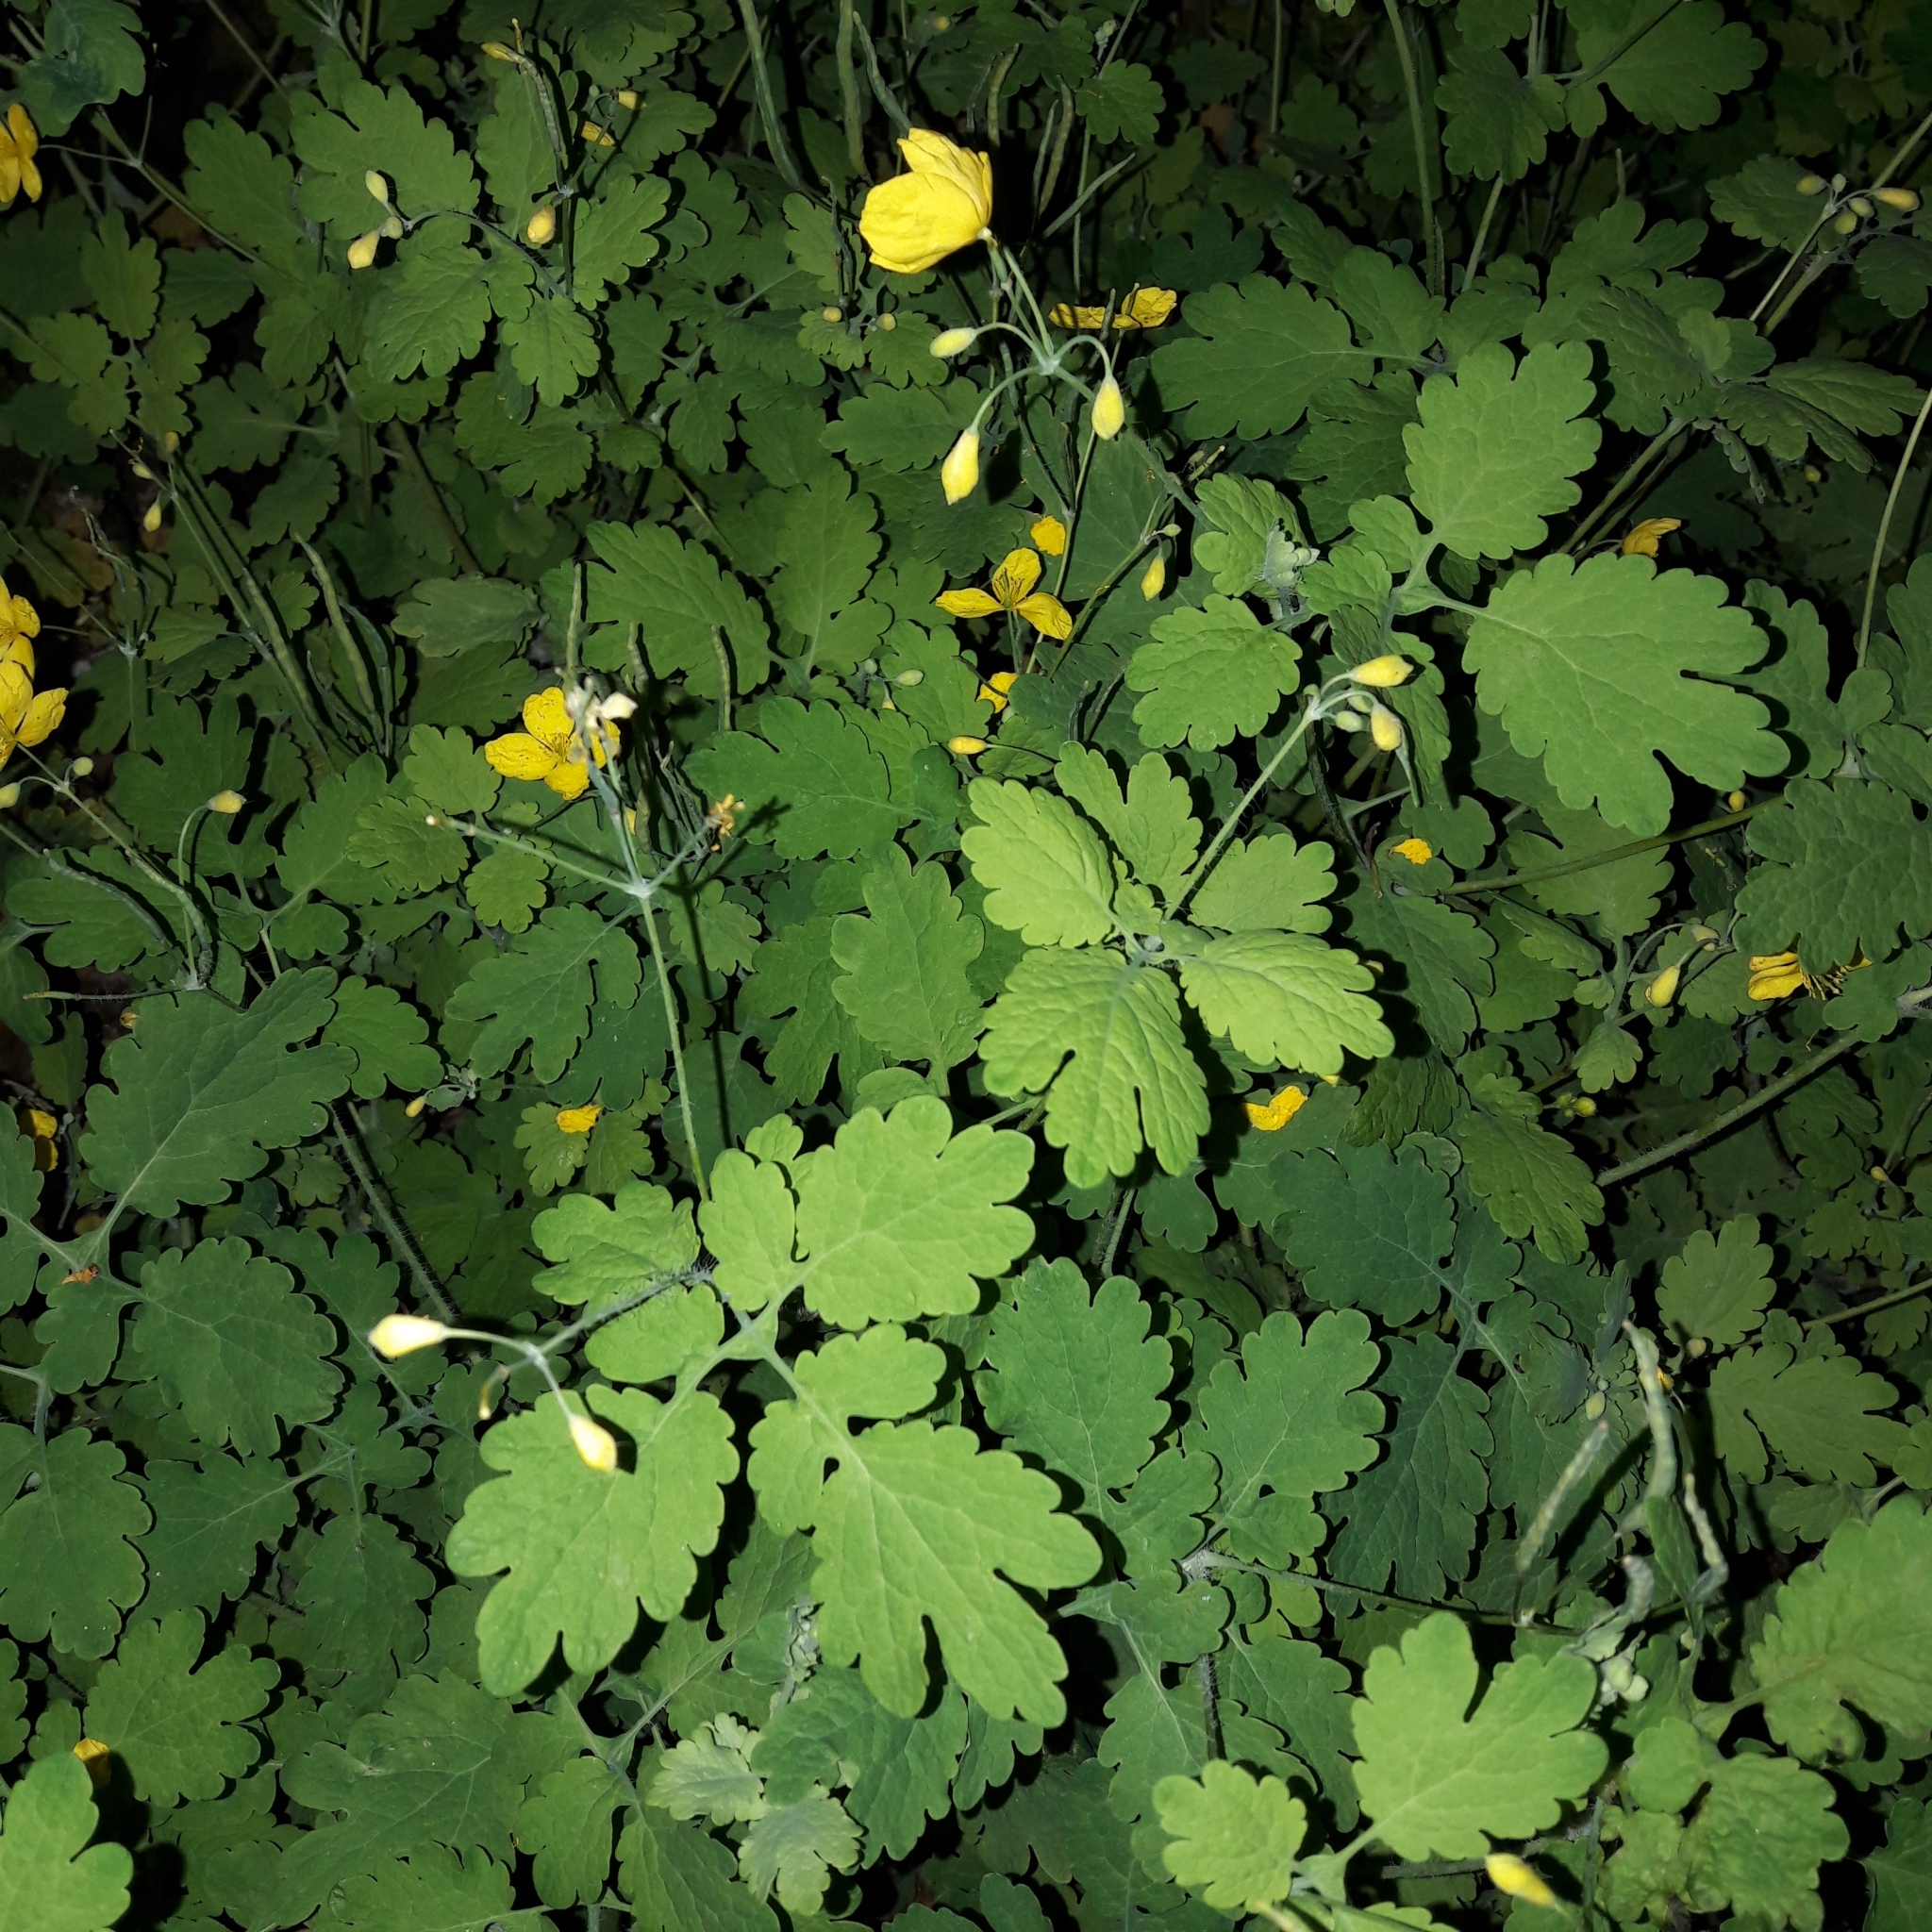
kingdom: Plantae
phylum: Tracheophyta
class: Magnoliopsida
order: Ranunculales
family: Papaveraceae
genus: Chelidonium
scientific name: Chelidonium majus
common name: Greater celandine
